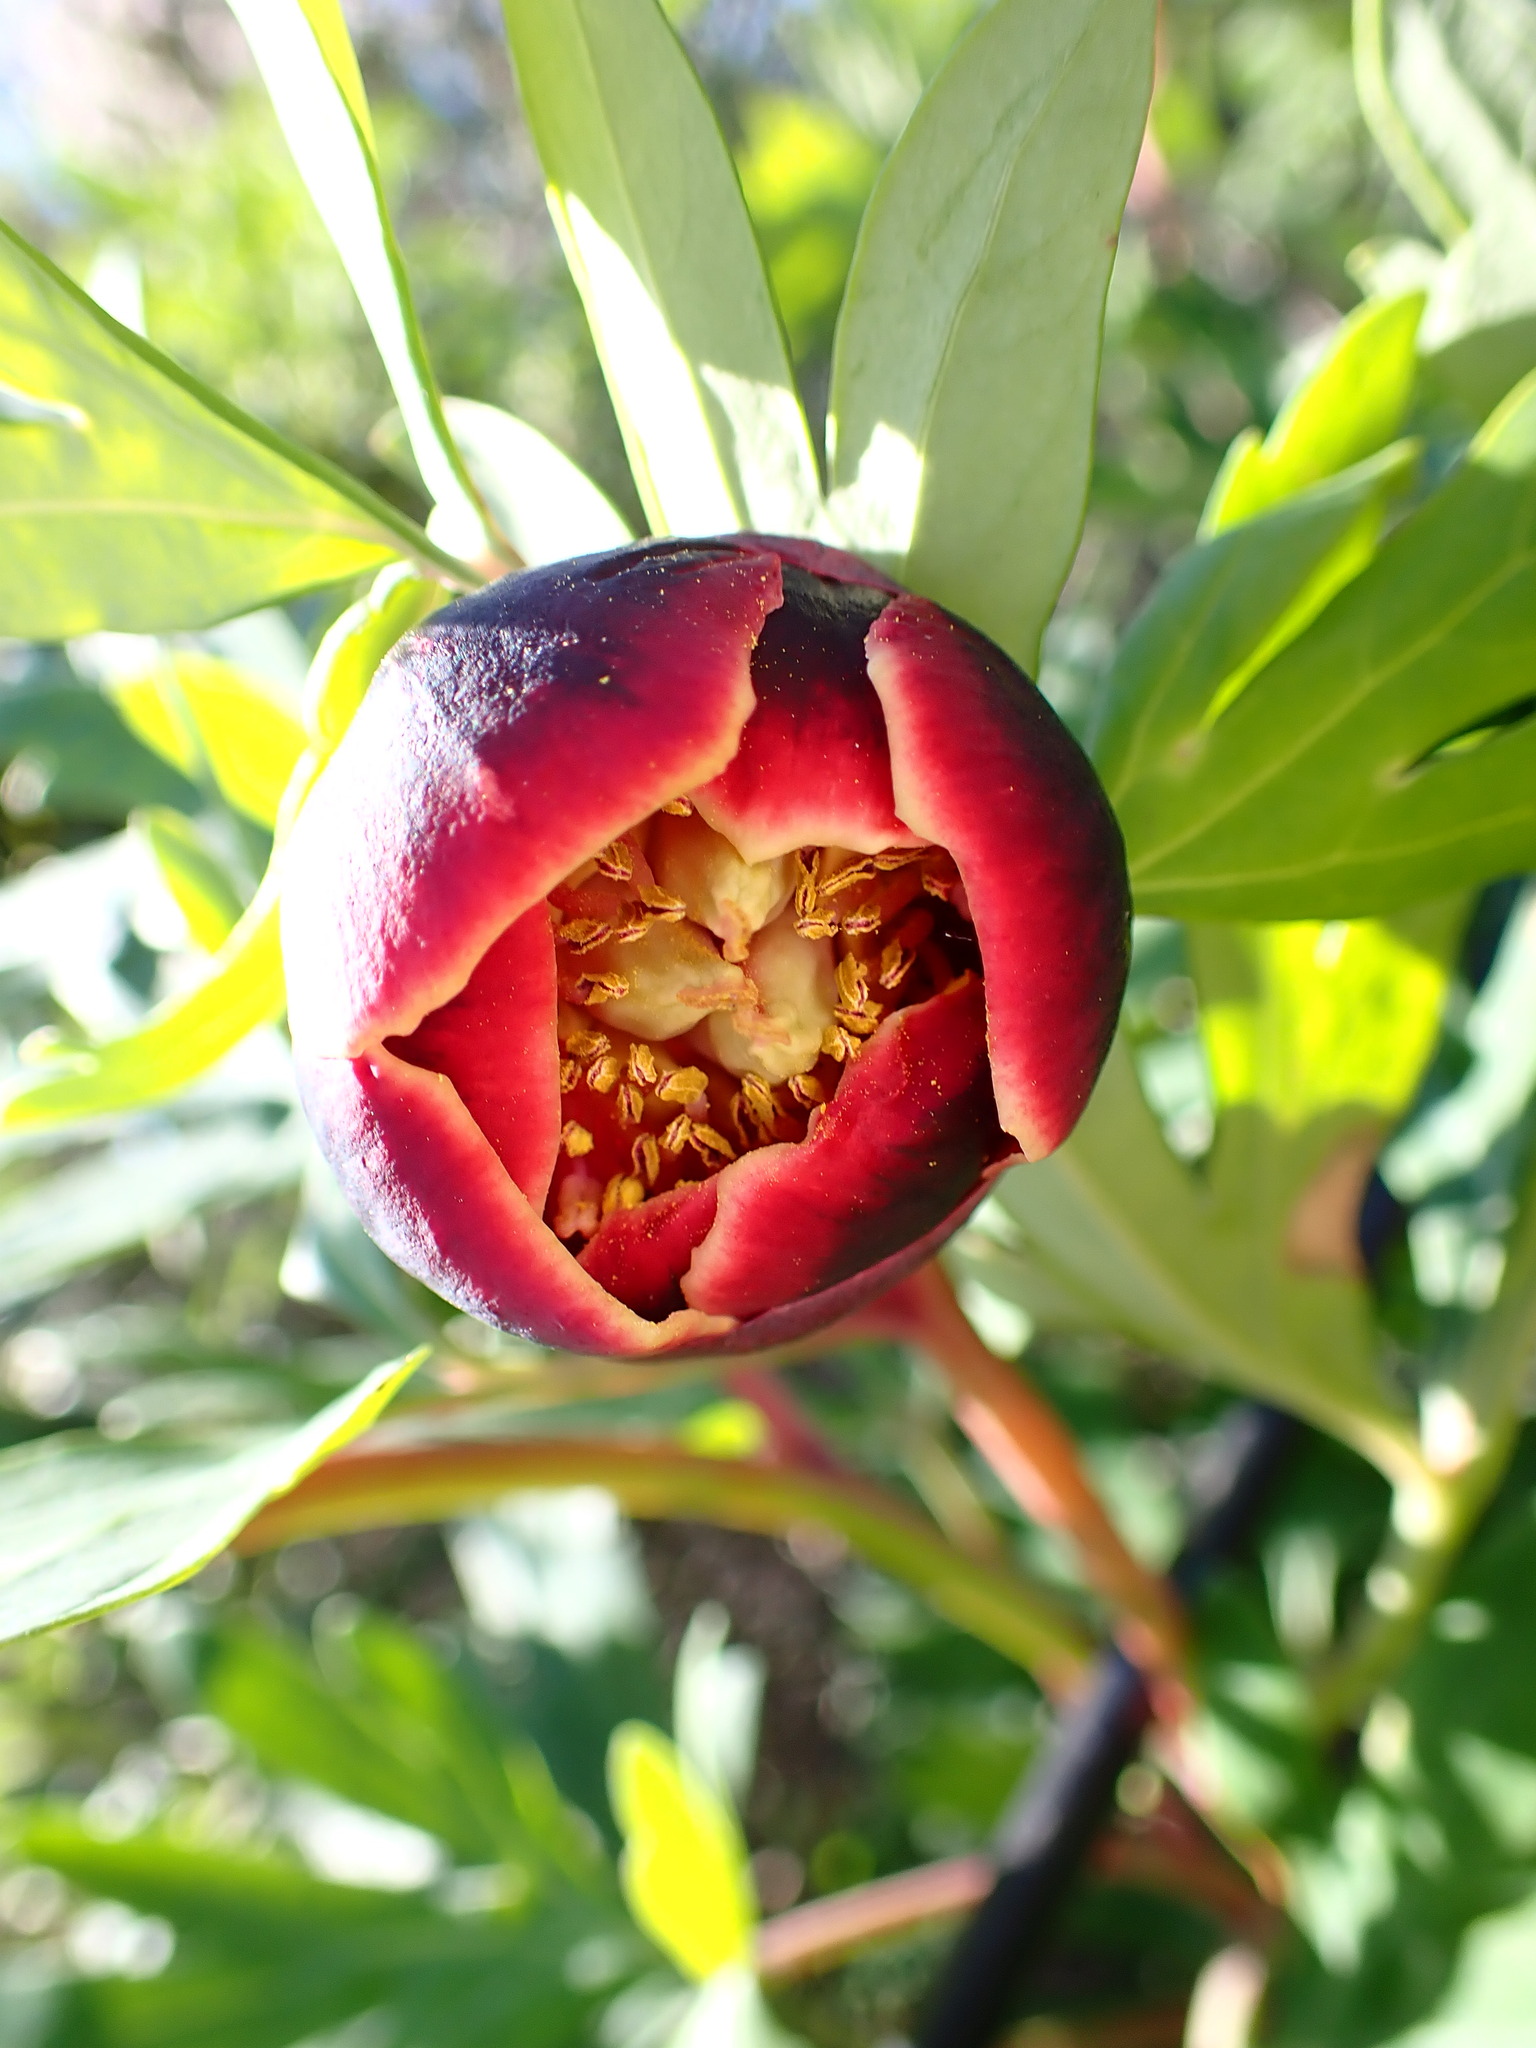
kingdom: Plantae
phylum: Tracheophyta
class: Magnoliopsida
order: Saxifragales
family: Paeoniaceae
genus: Paeonia
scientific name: Paeonia californica
